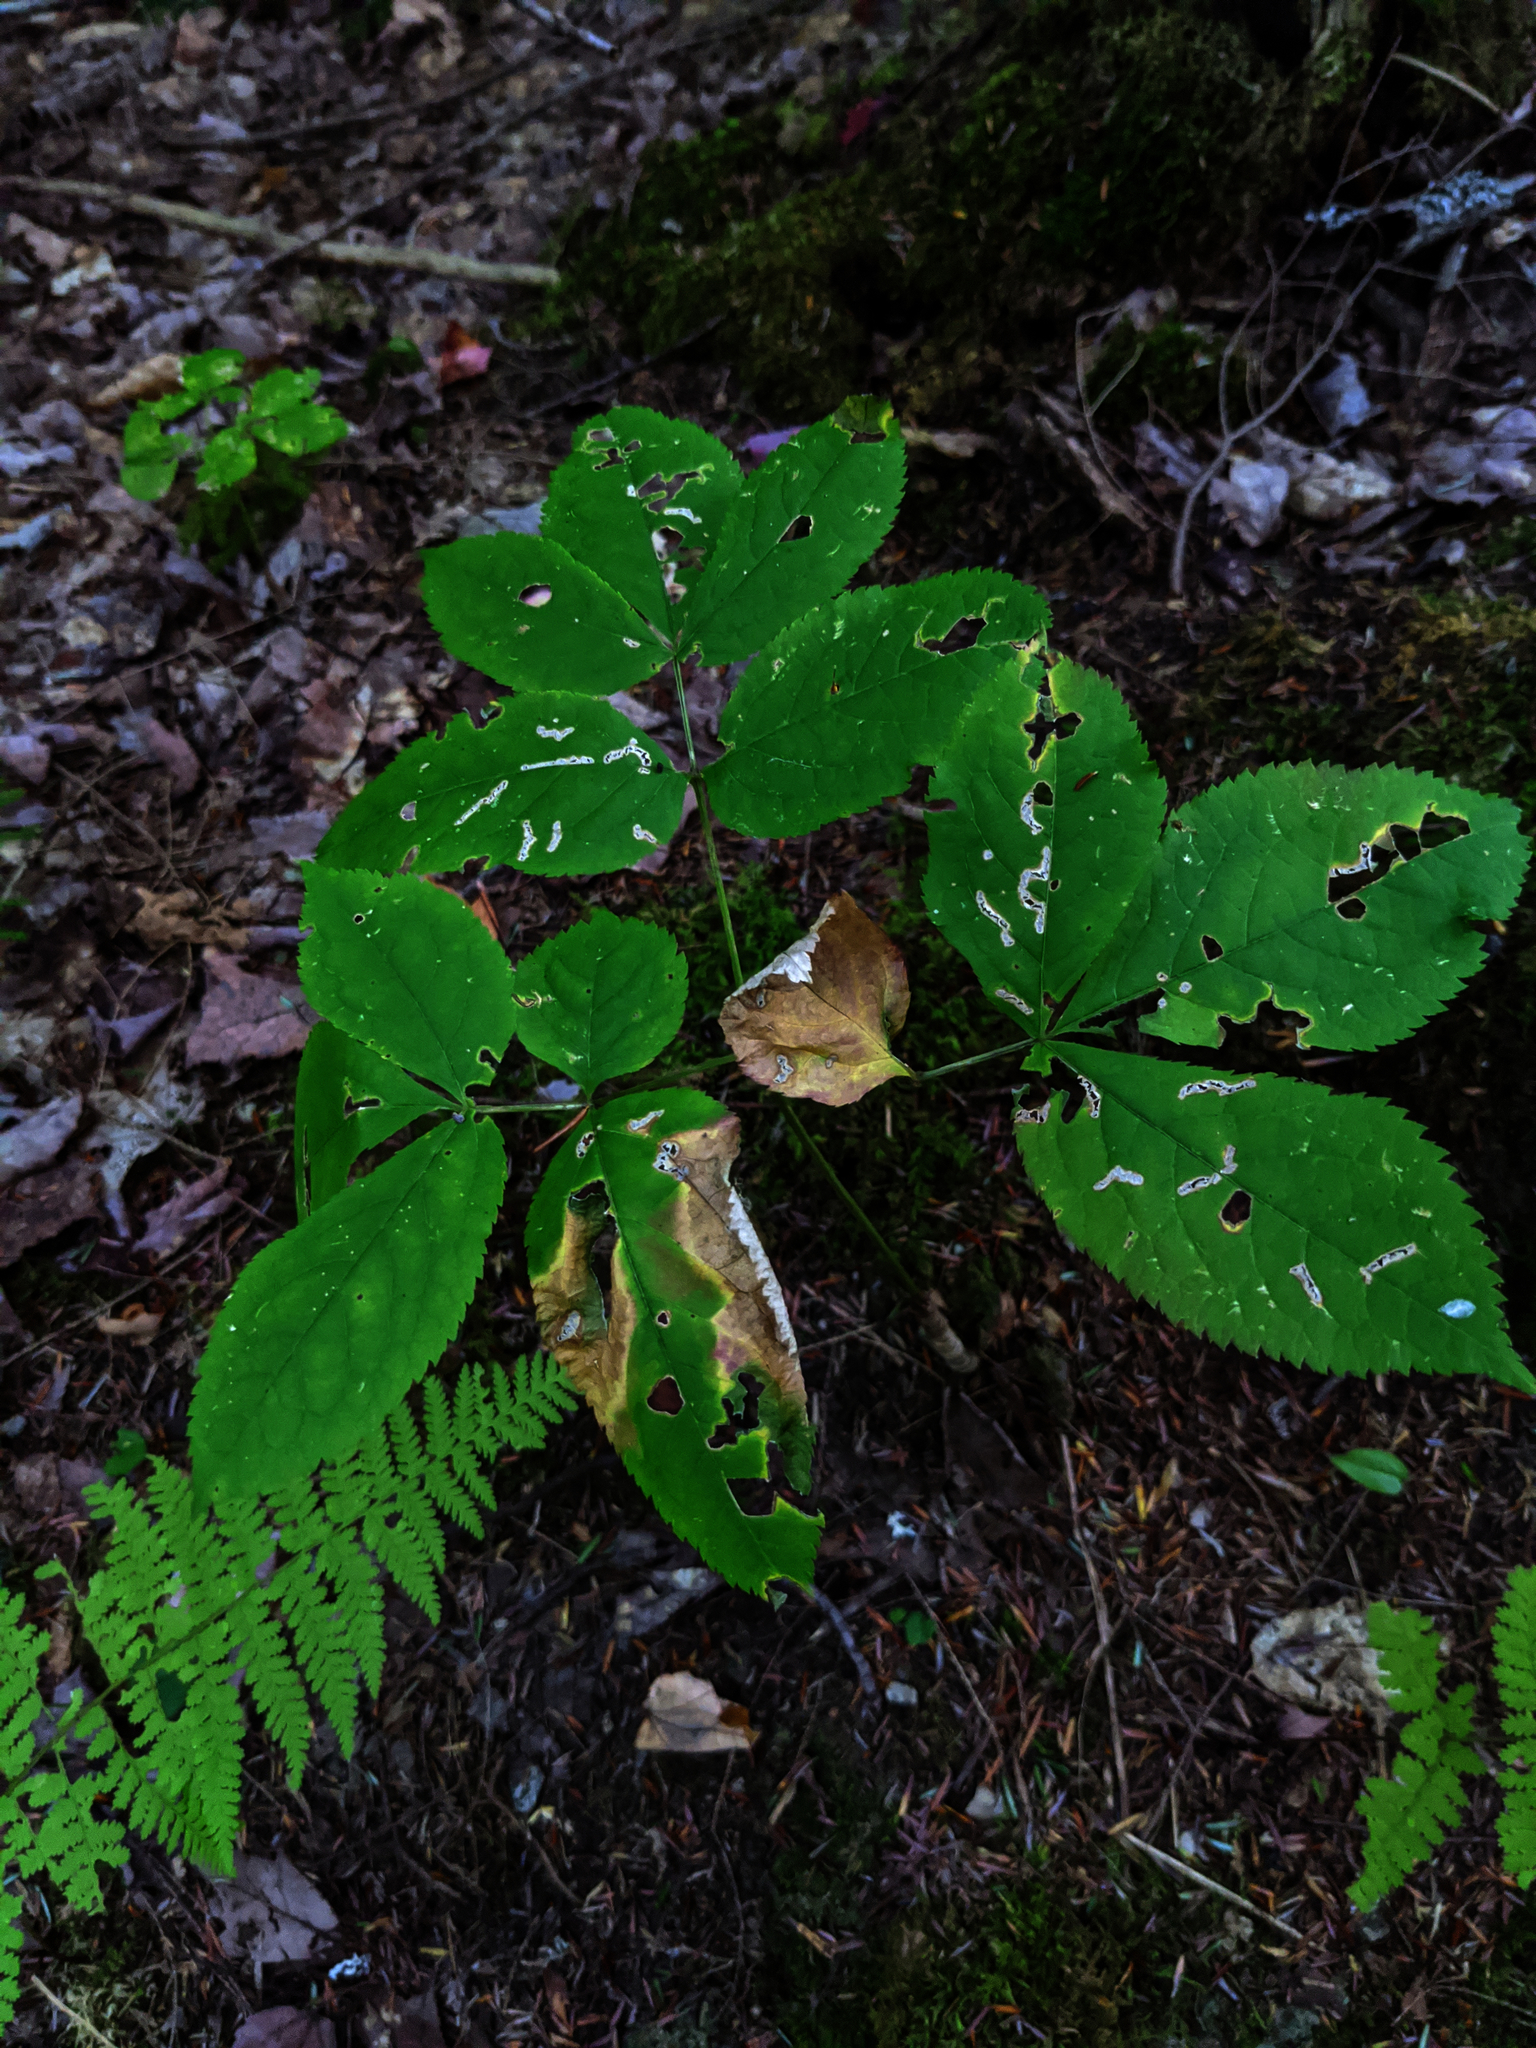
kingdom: Plantae
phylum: Tracheophyta
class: Magnoliopsida
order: Apiales
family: Araliaceae
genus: Aralia
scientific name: Aralia nudicaulis
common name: Wild sarsaparilla
